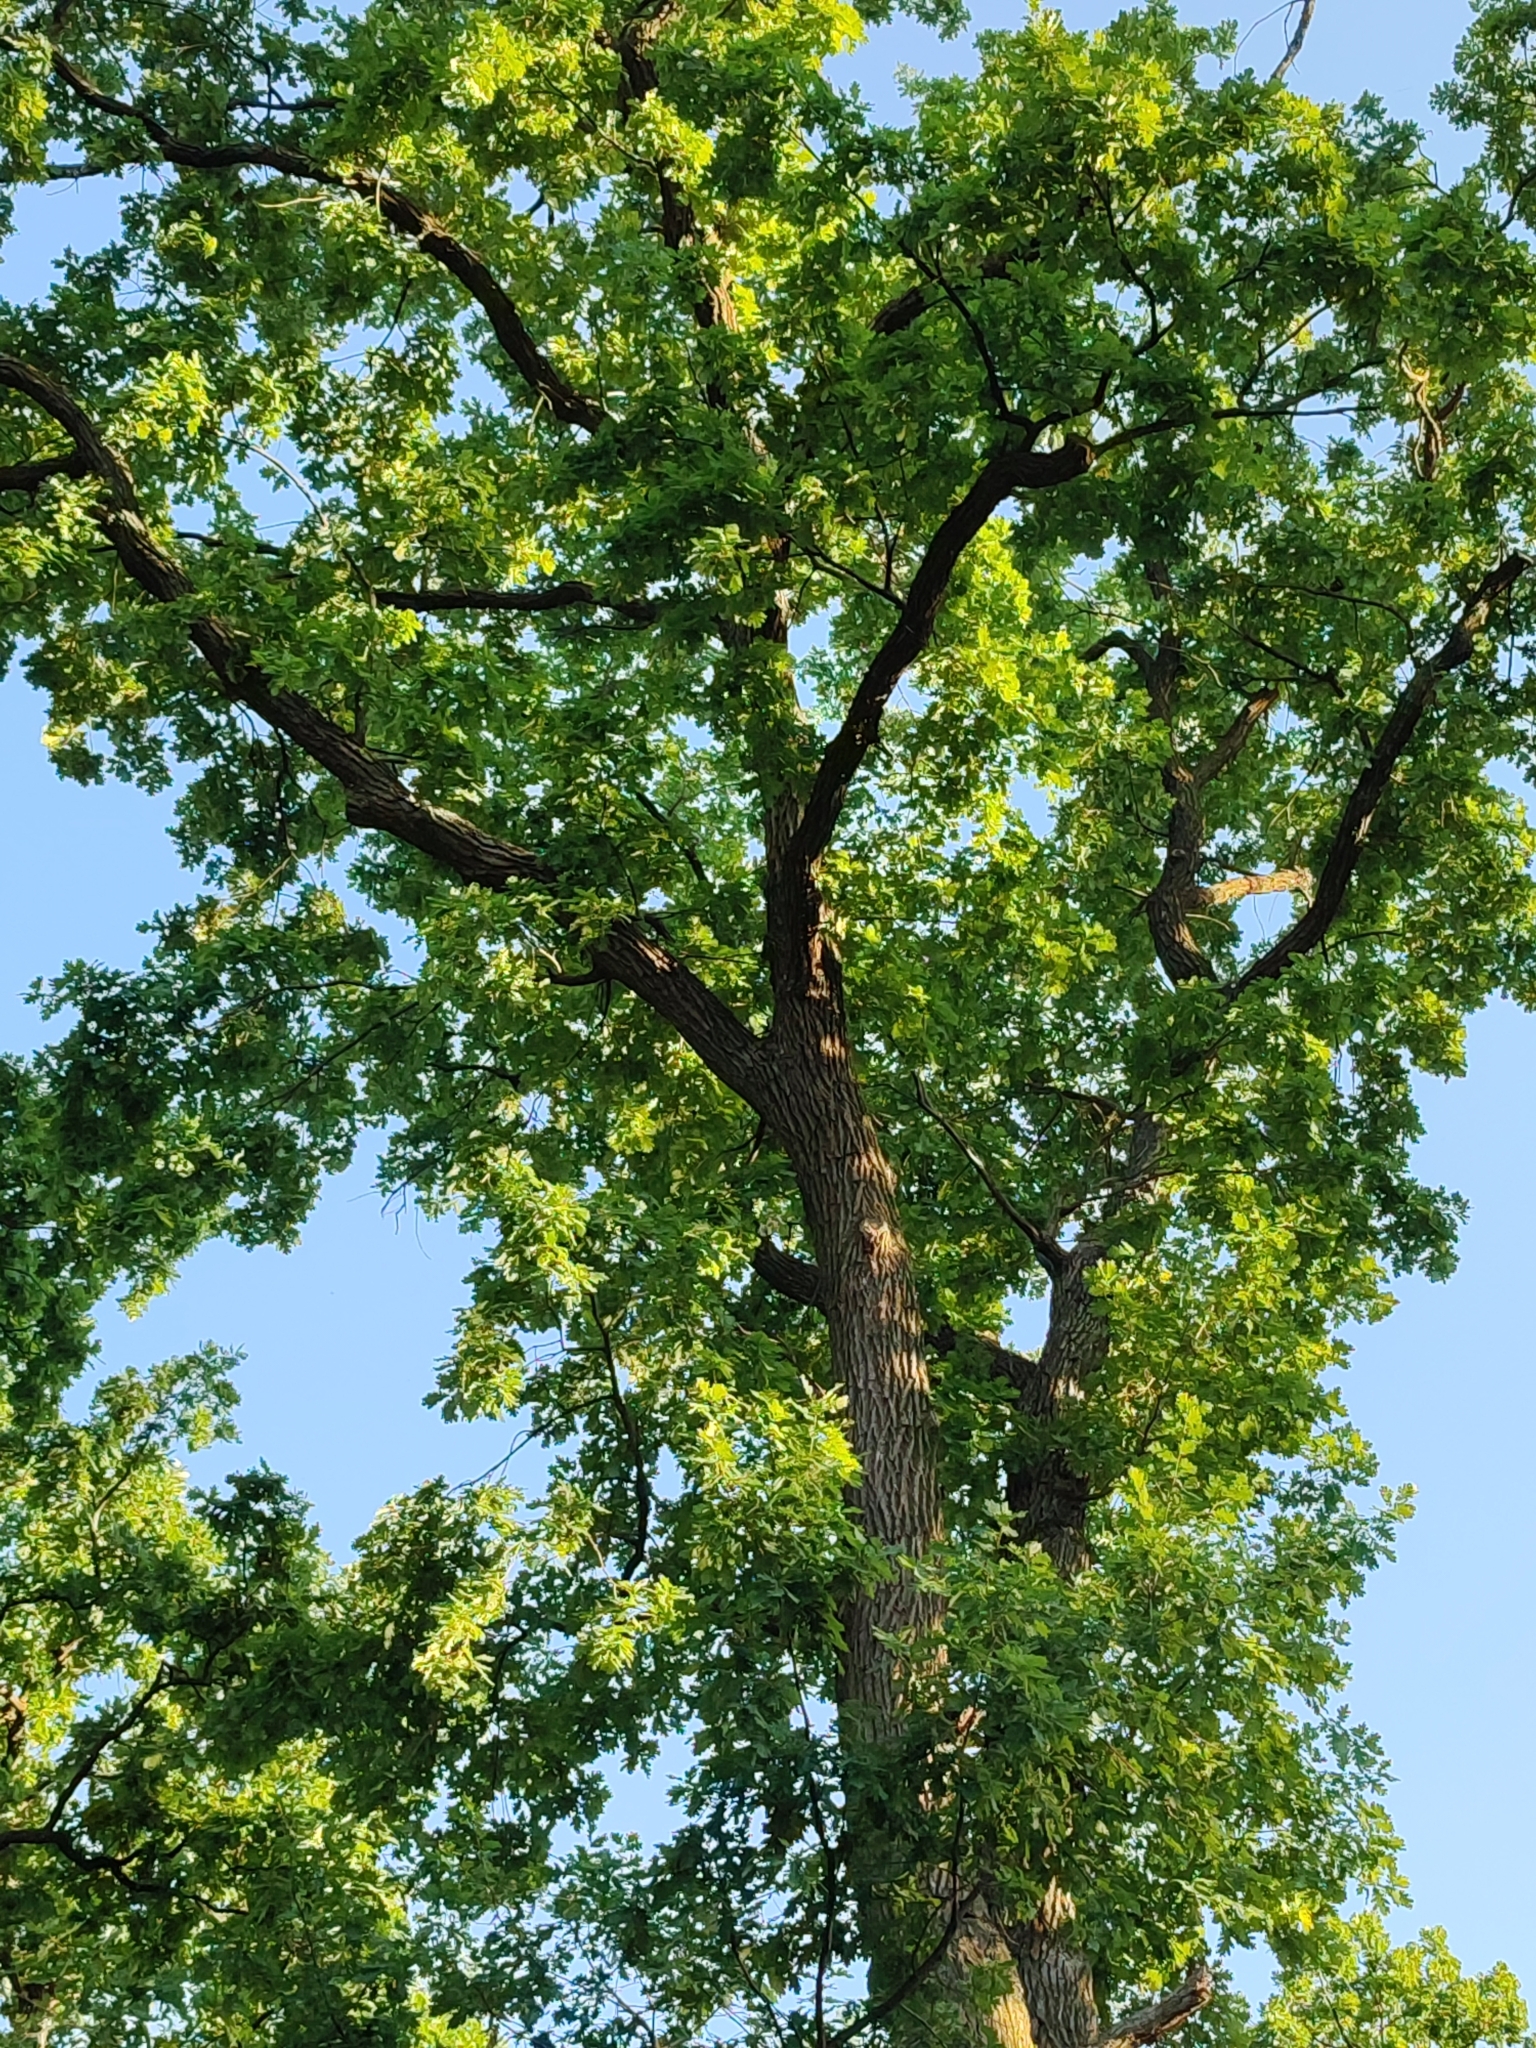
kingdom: Plantae
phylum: Tracheophyta
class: Magnoliopsida
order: Fagales
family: Fagaceae
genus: Quercus
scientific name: Quercus robur
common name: Pedunculate oak
